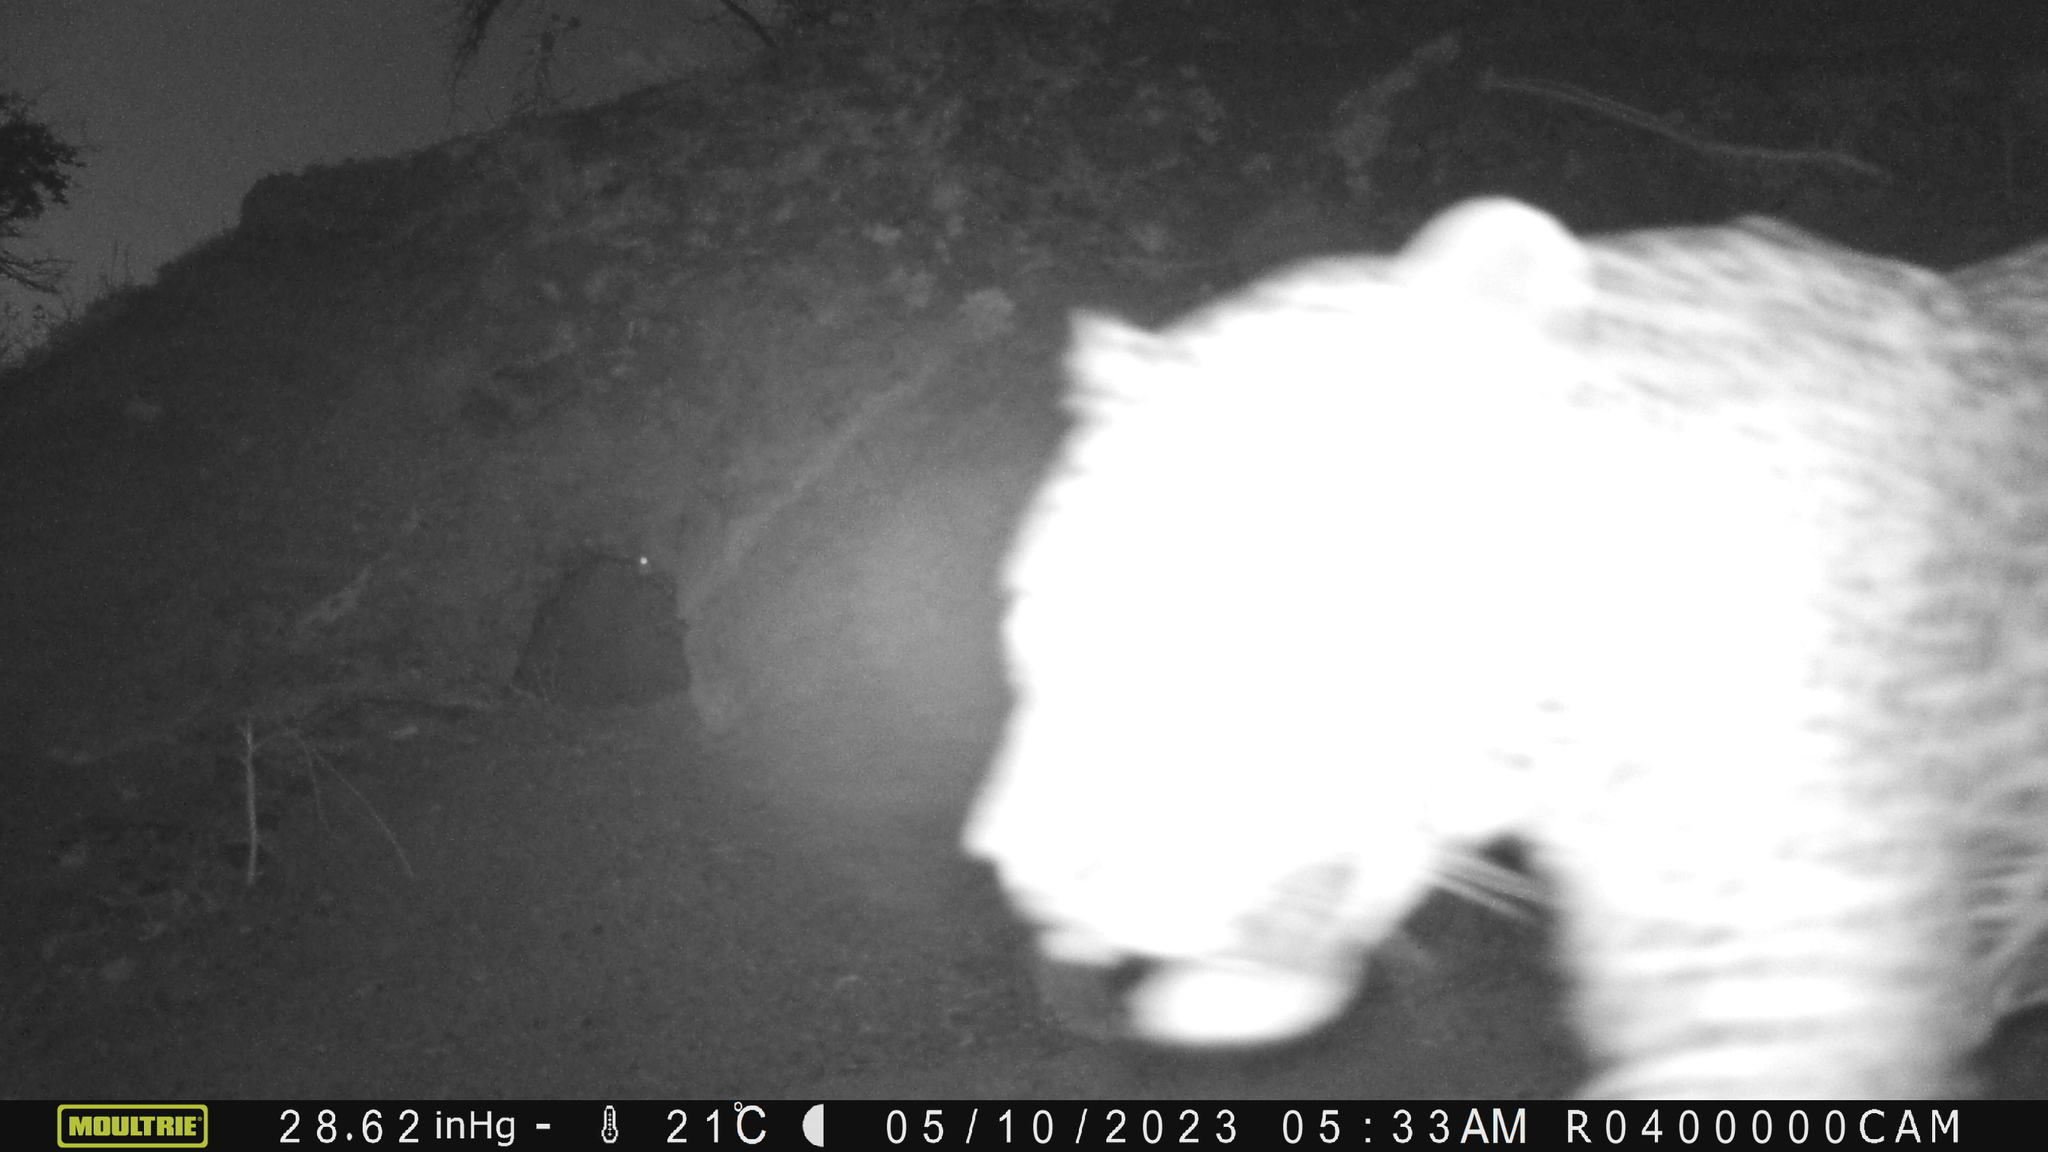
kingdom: Animalia
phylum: Chordata
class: Mammalia
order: Carnivora
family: Felidae
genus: Panthera
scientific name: Panthera pardus
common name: Leopard
